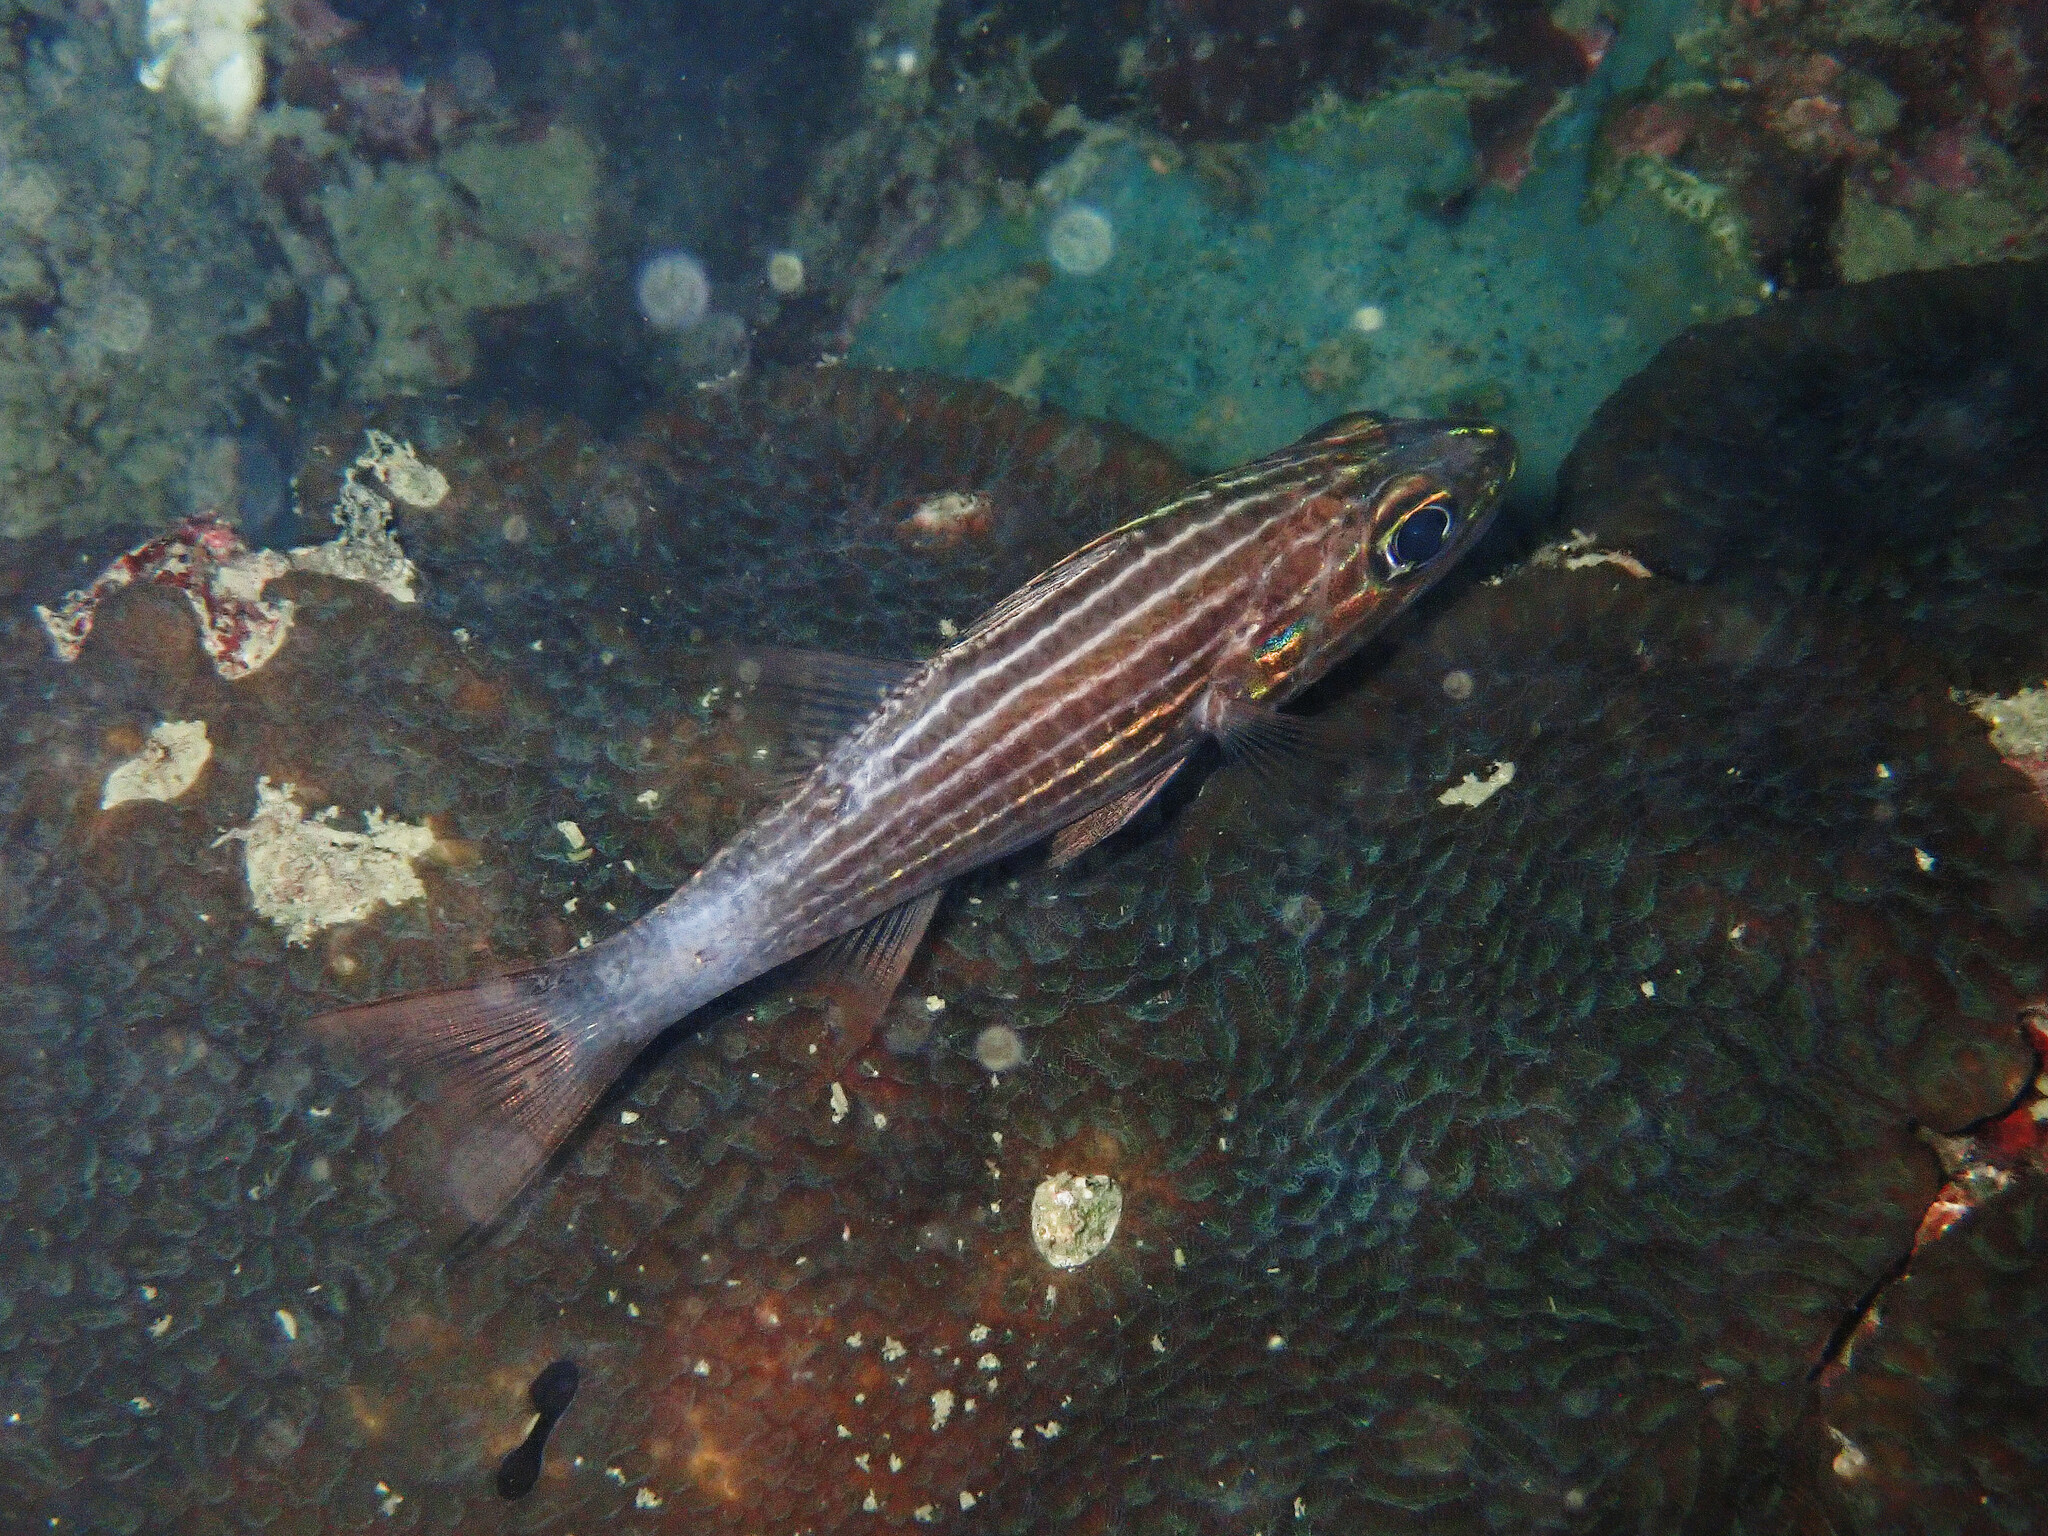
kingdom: Animalia
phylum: Chordata
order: Perciformes
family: Apogonidae
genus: Cheilodipterus
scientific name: Cheilodipterus macrodon
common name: Eight-lined cardinalfish
